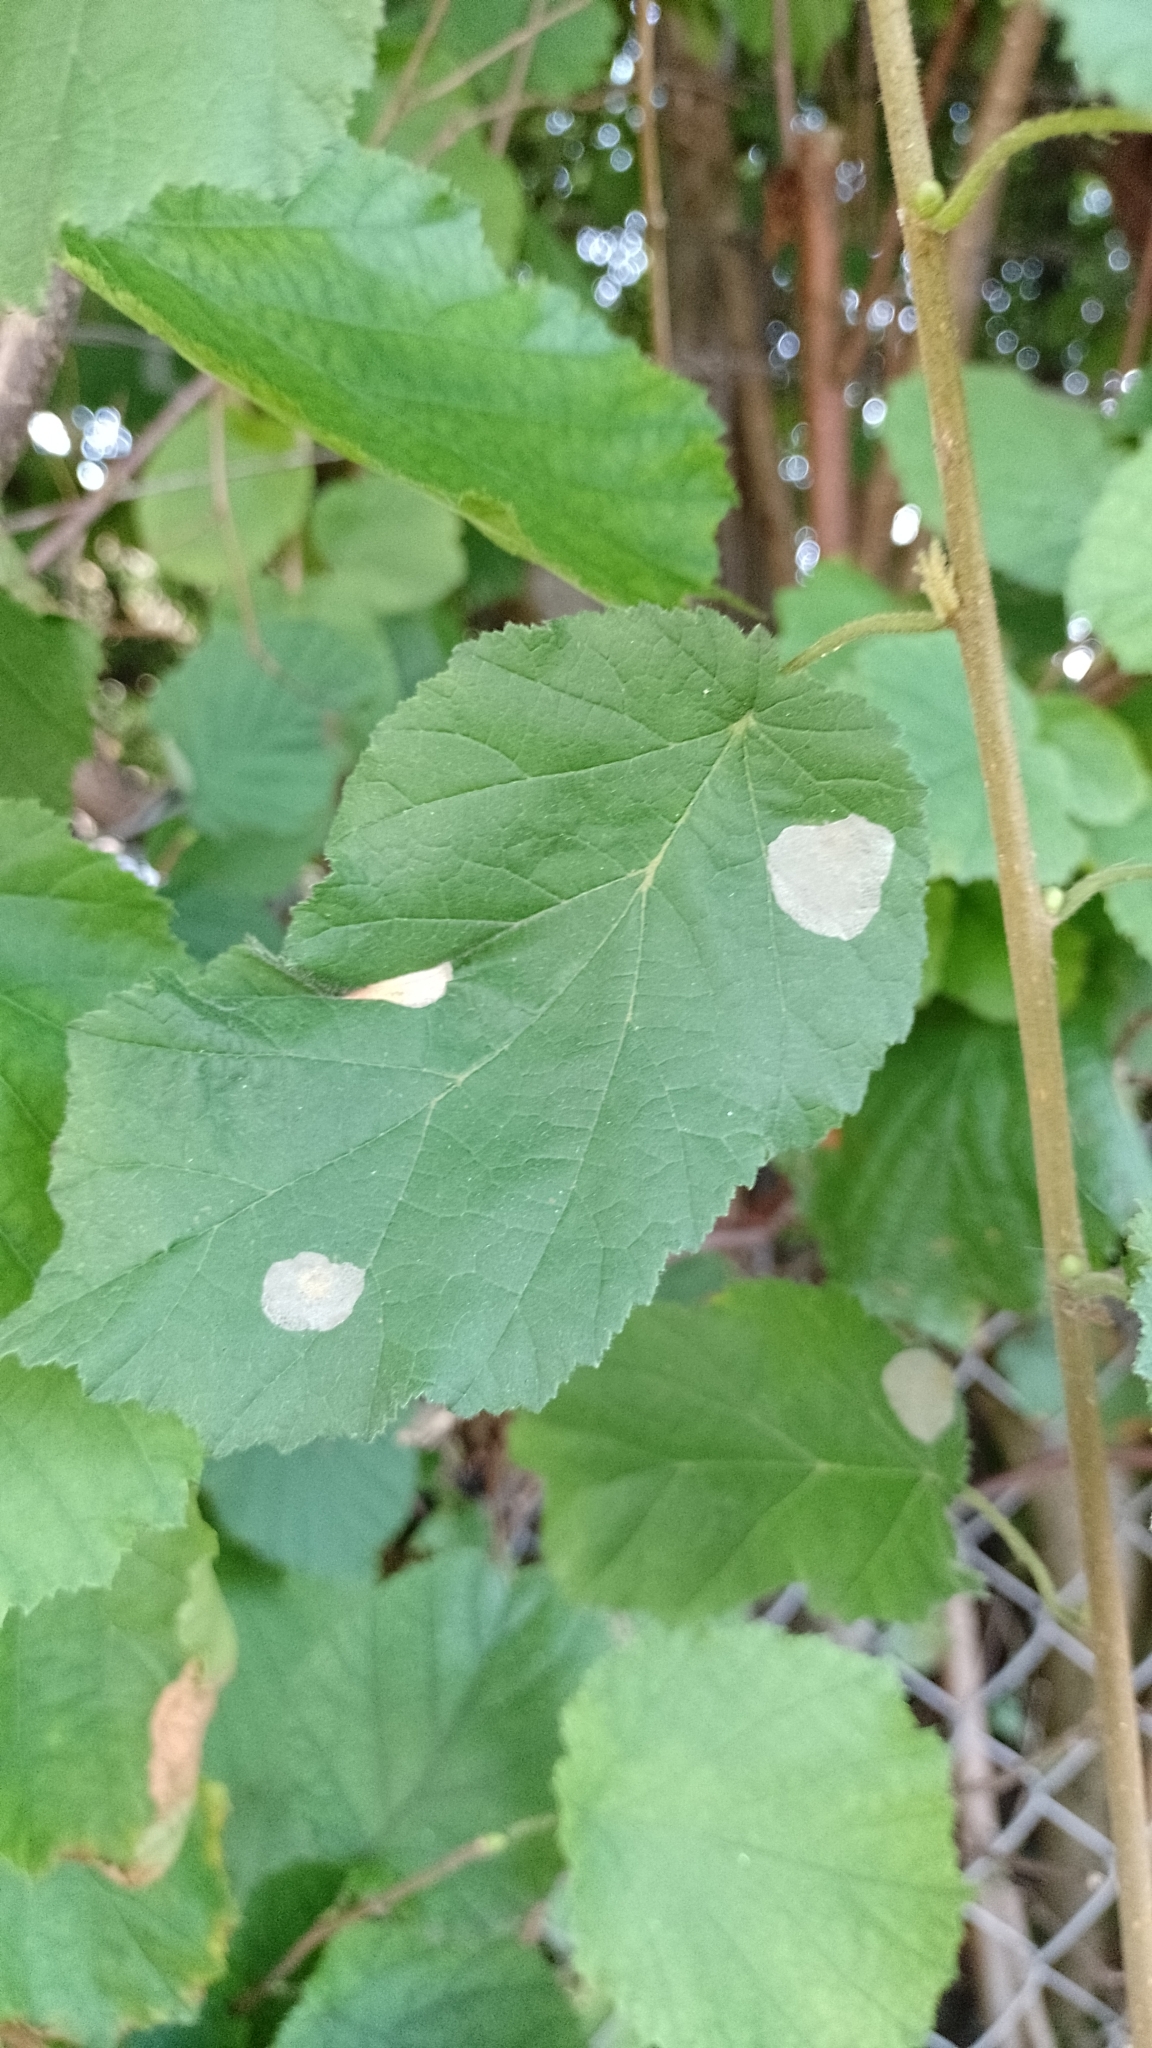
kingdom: Animalia
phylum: Arthropoda
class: Insecta
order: Lepidoptera
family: Gracillariidae
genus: Phyllonorycter
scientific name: Phyllonorycter coryli
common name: Nut-leaf blister moth
